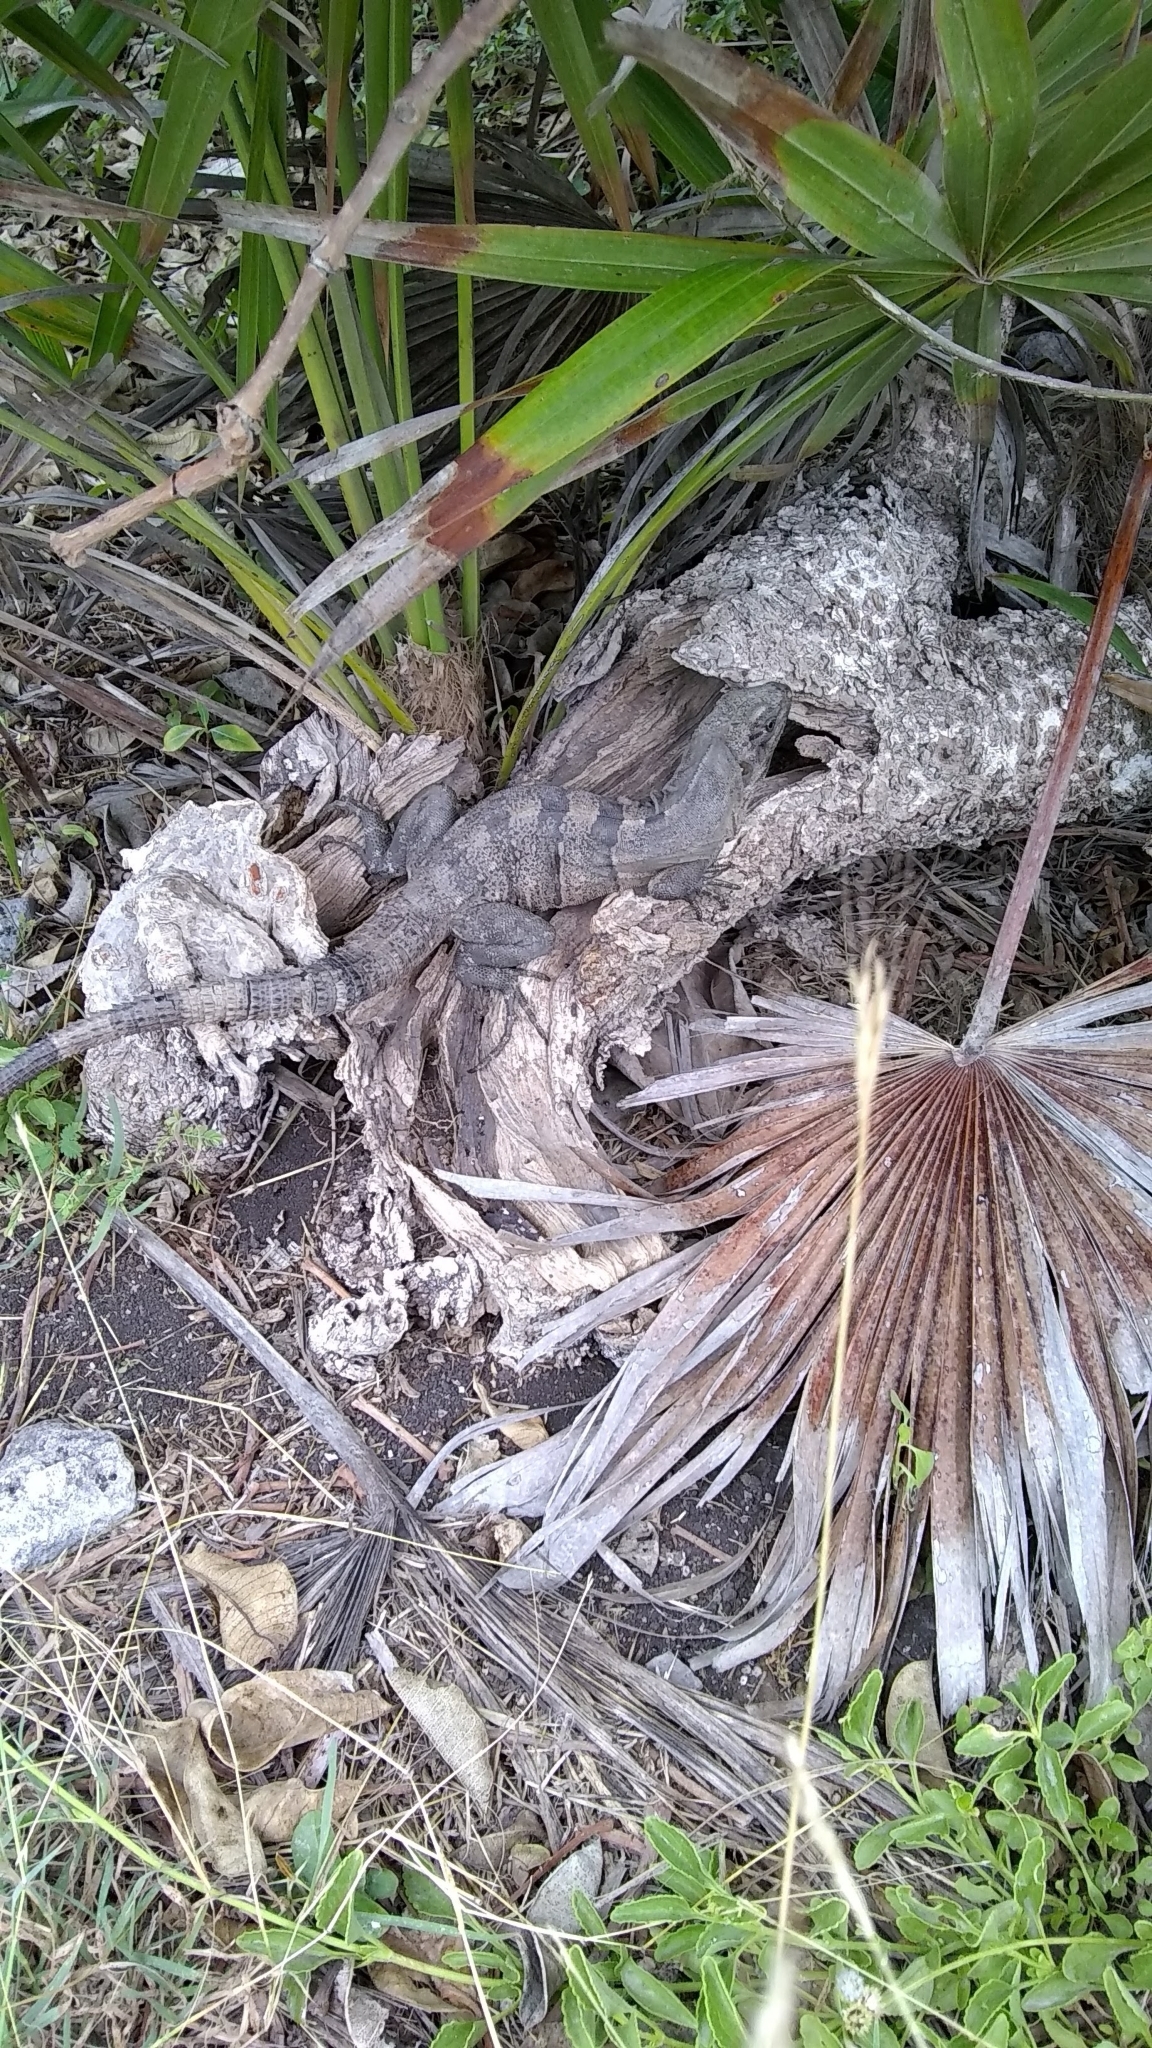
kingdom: Animalia
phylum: Chordata
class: Squamata
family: Iguanidae
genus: Ctenosaura
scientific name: Ctenosaura similis
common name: Black spiny-tailed iguana
